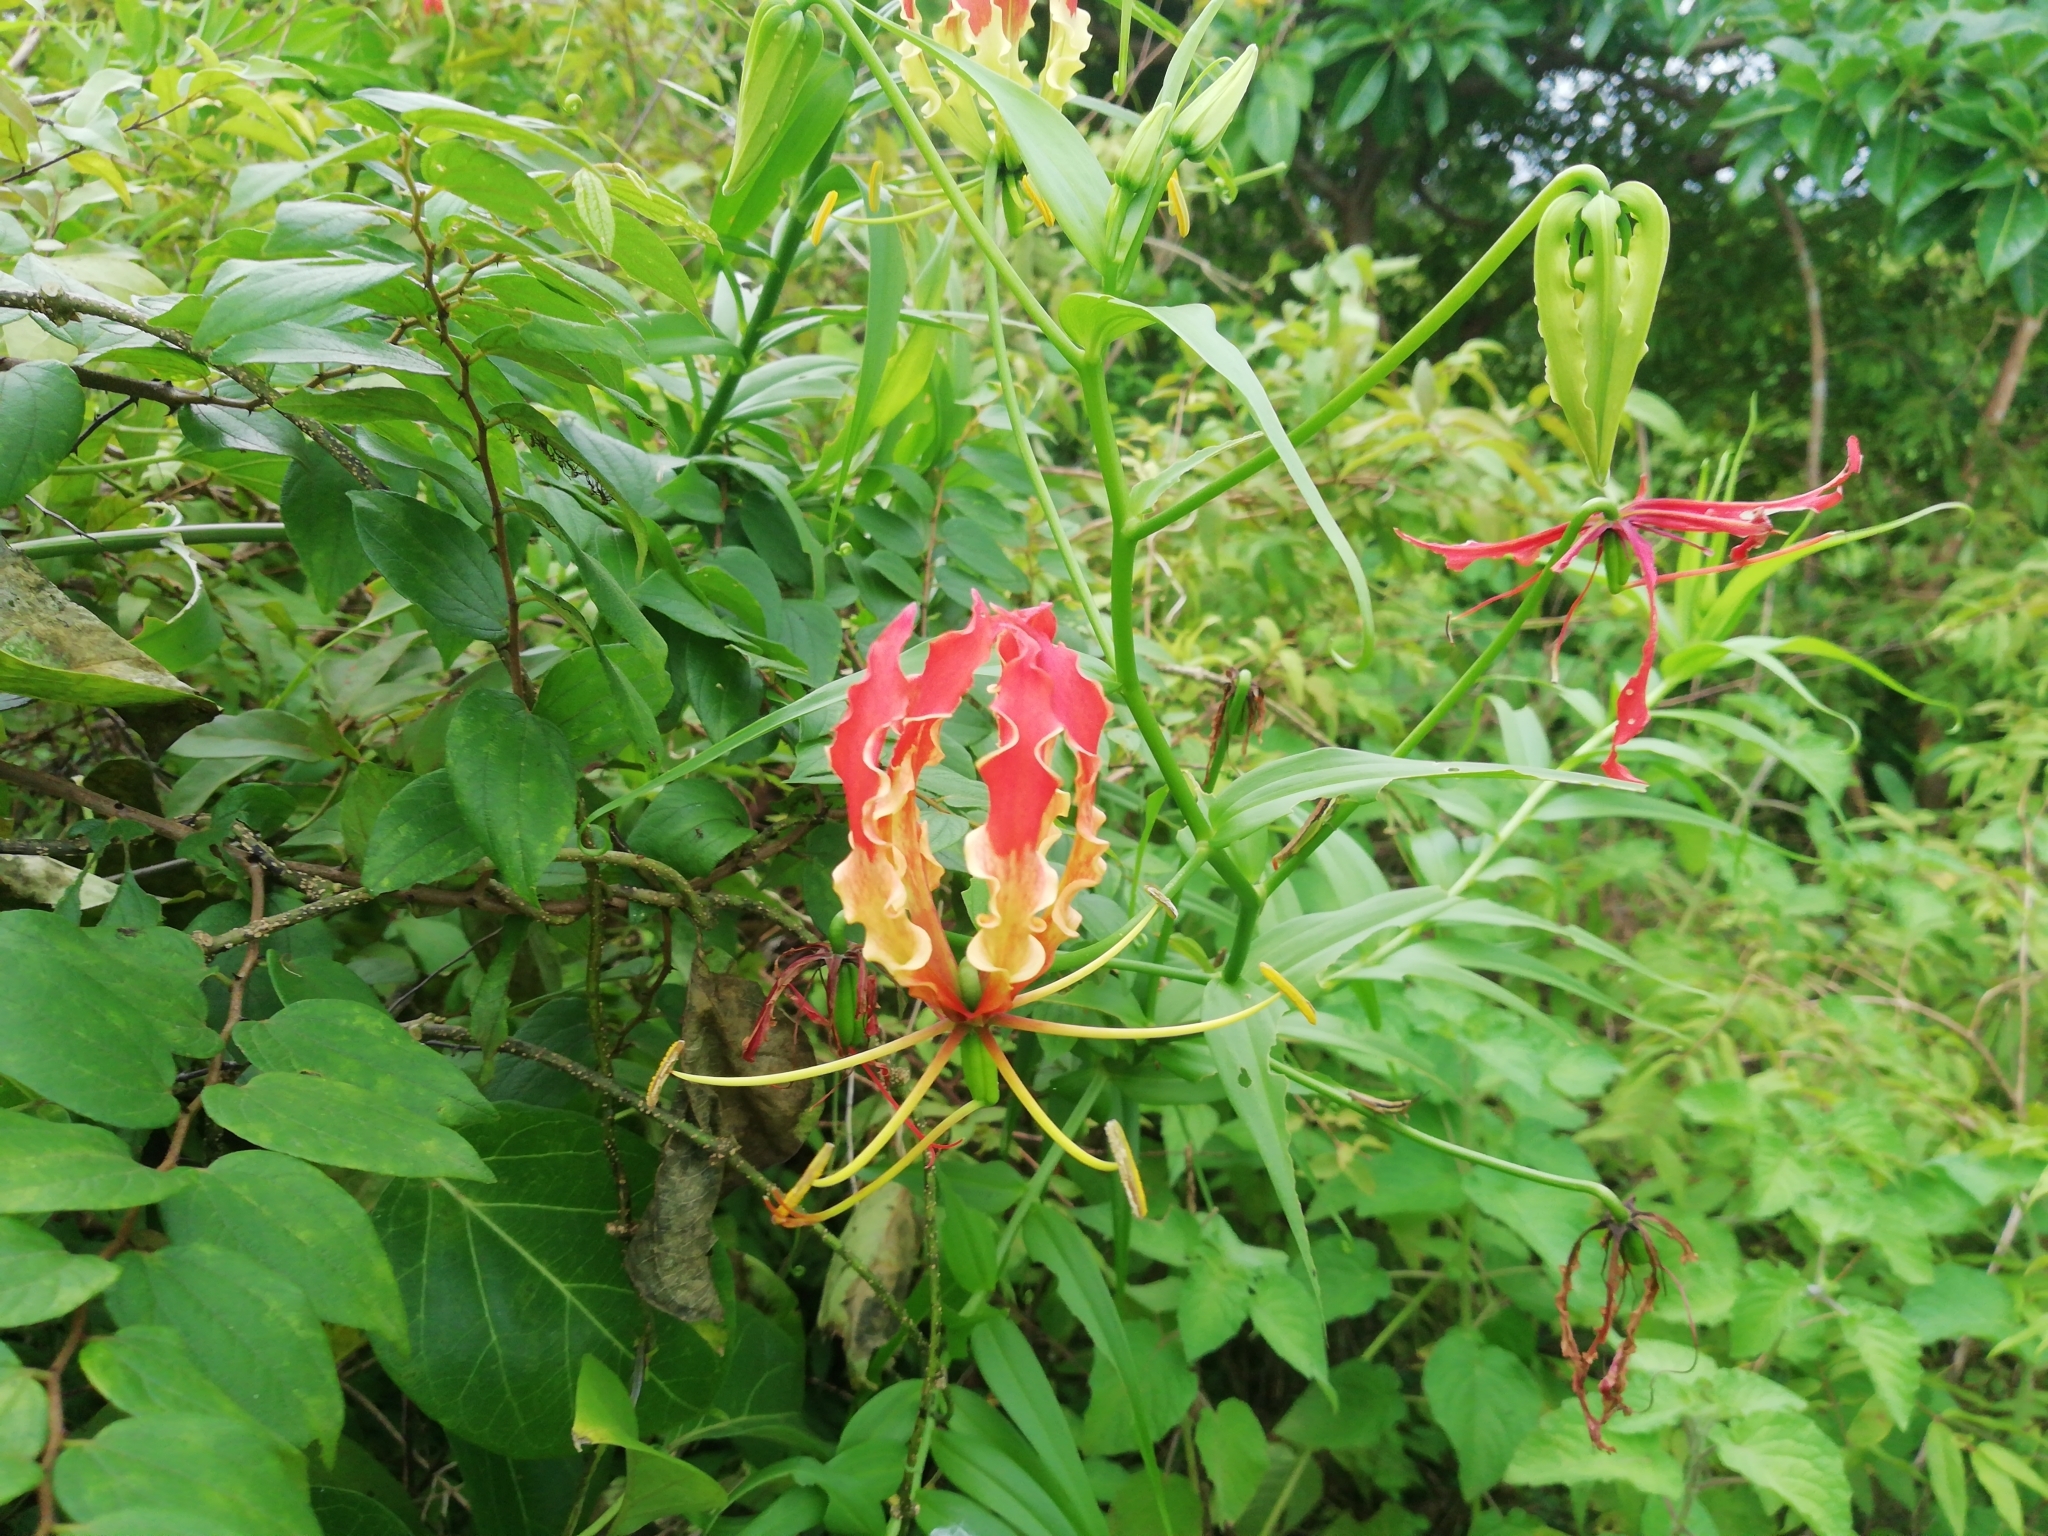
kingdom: Plantae
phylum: Tracheophyta
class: Liliopsida
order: Liliales
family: Colchicaceae
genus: Gloriosa
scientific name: Gloriosa superba
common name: Flame lily
